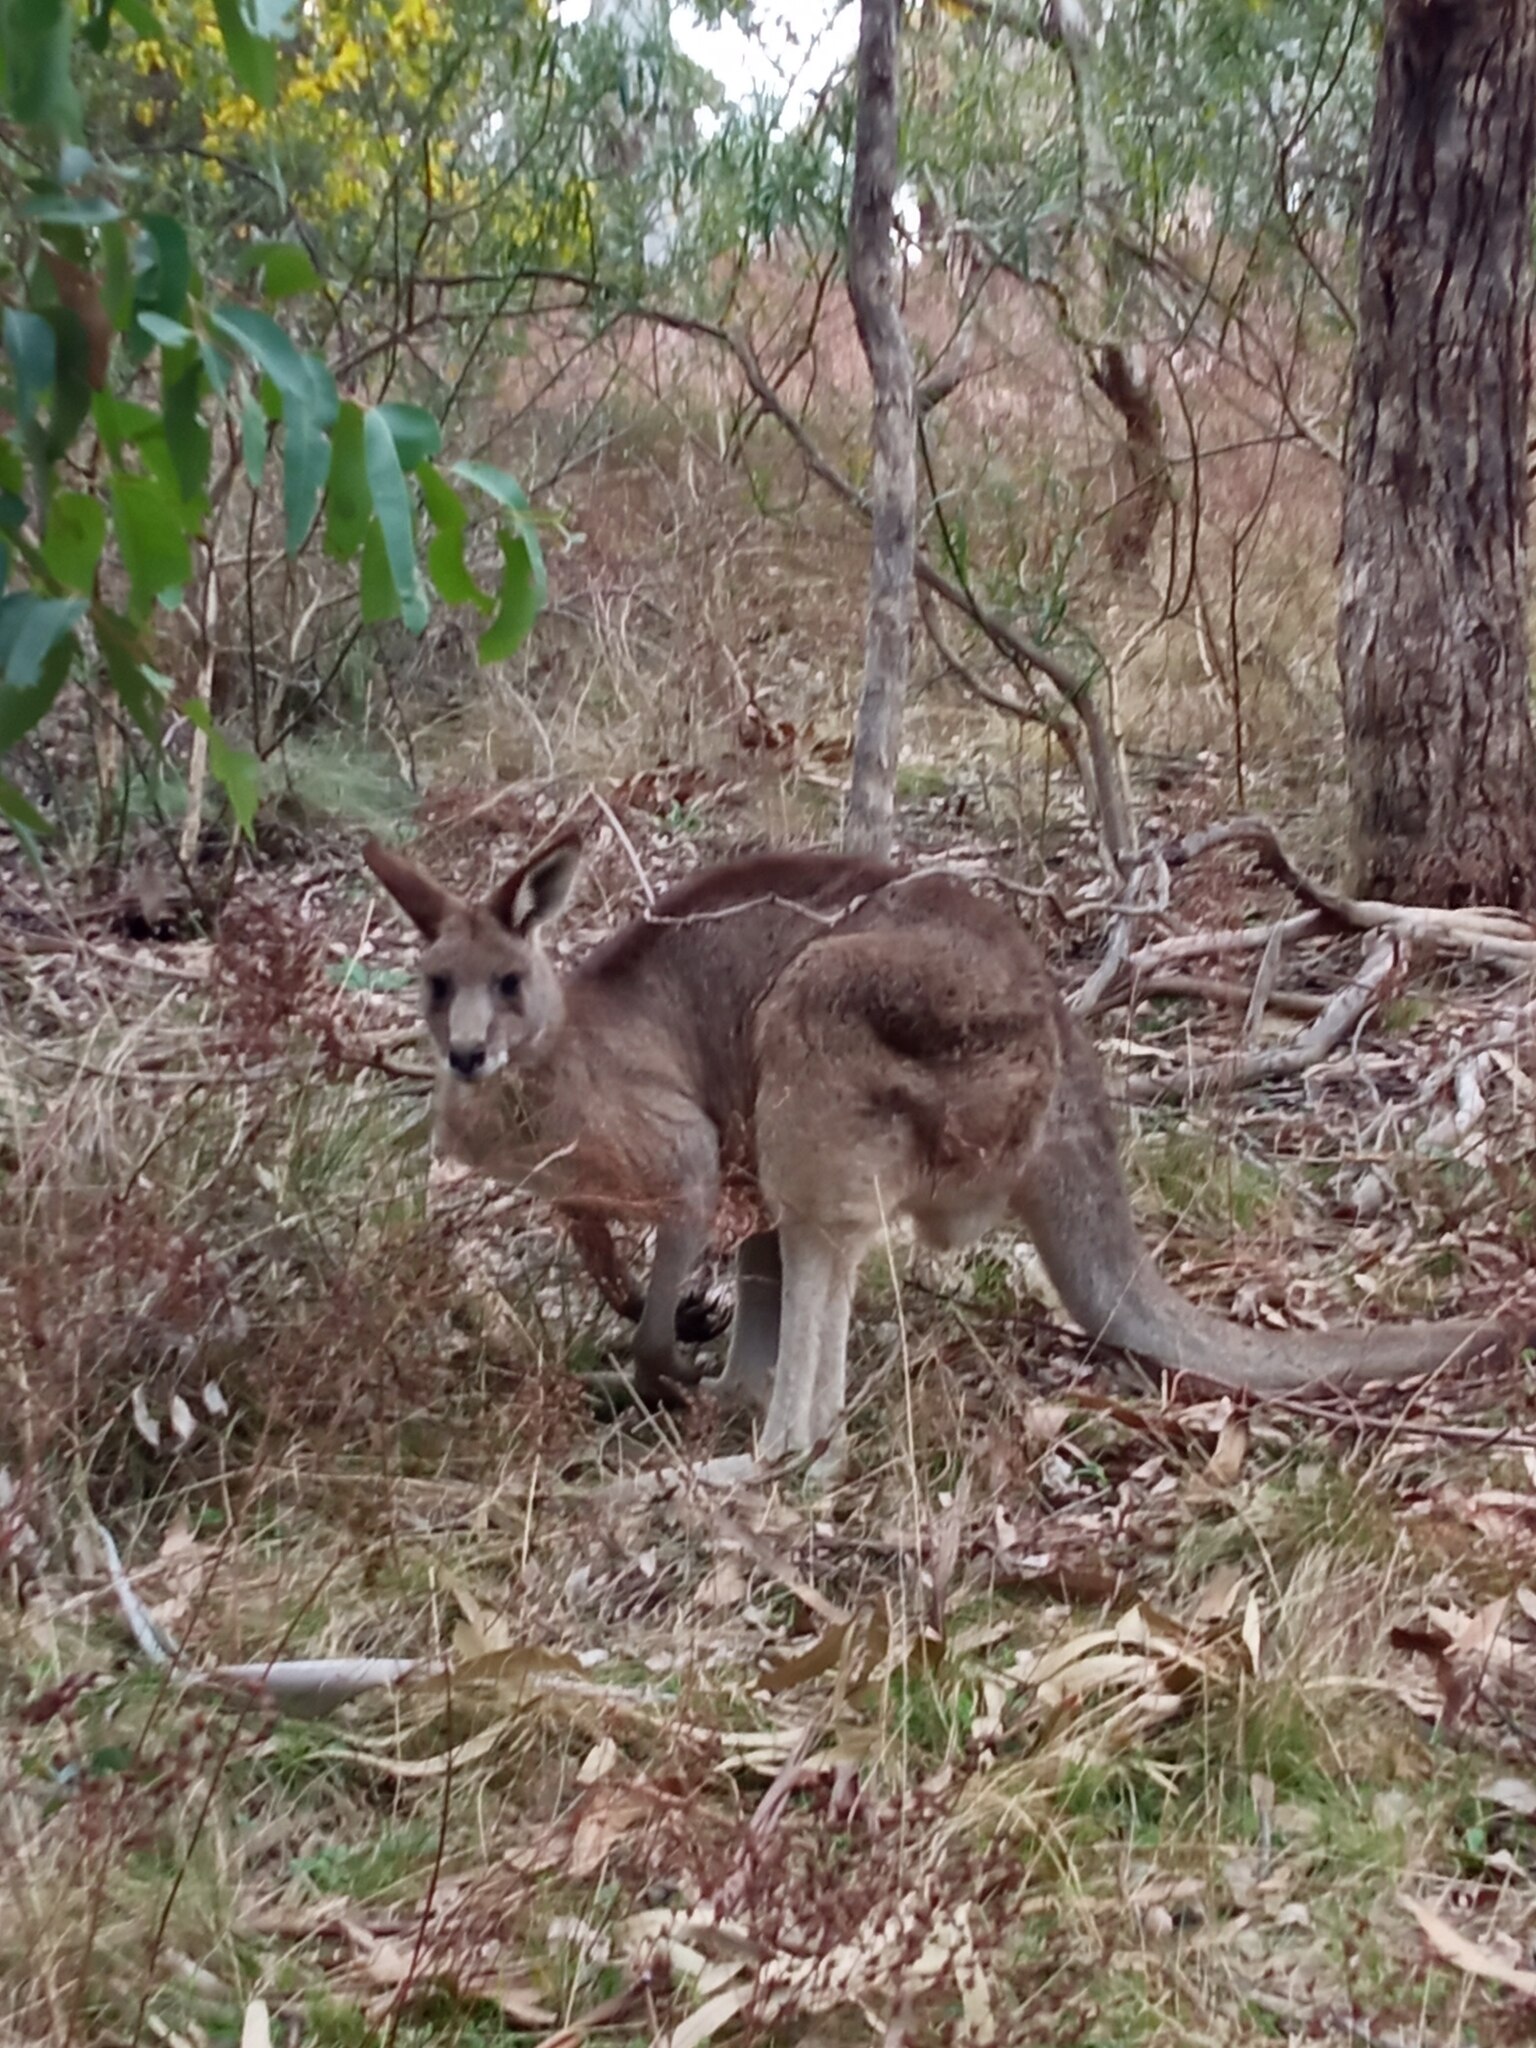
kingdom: Animalia
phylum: Chordata
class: Mammalia
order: Diprotodontia
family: Macropodidae
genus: Macropus
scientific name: Macropus giganteus
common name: Eastern grey kangaroo
